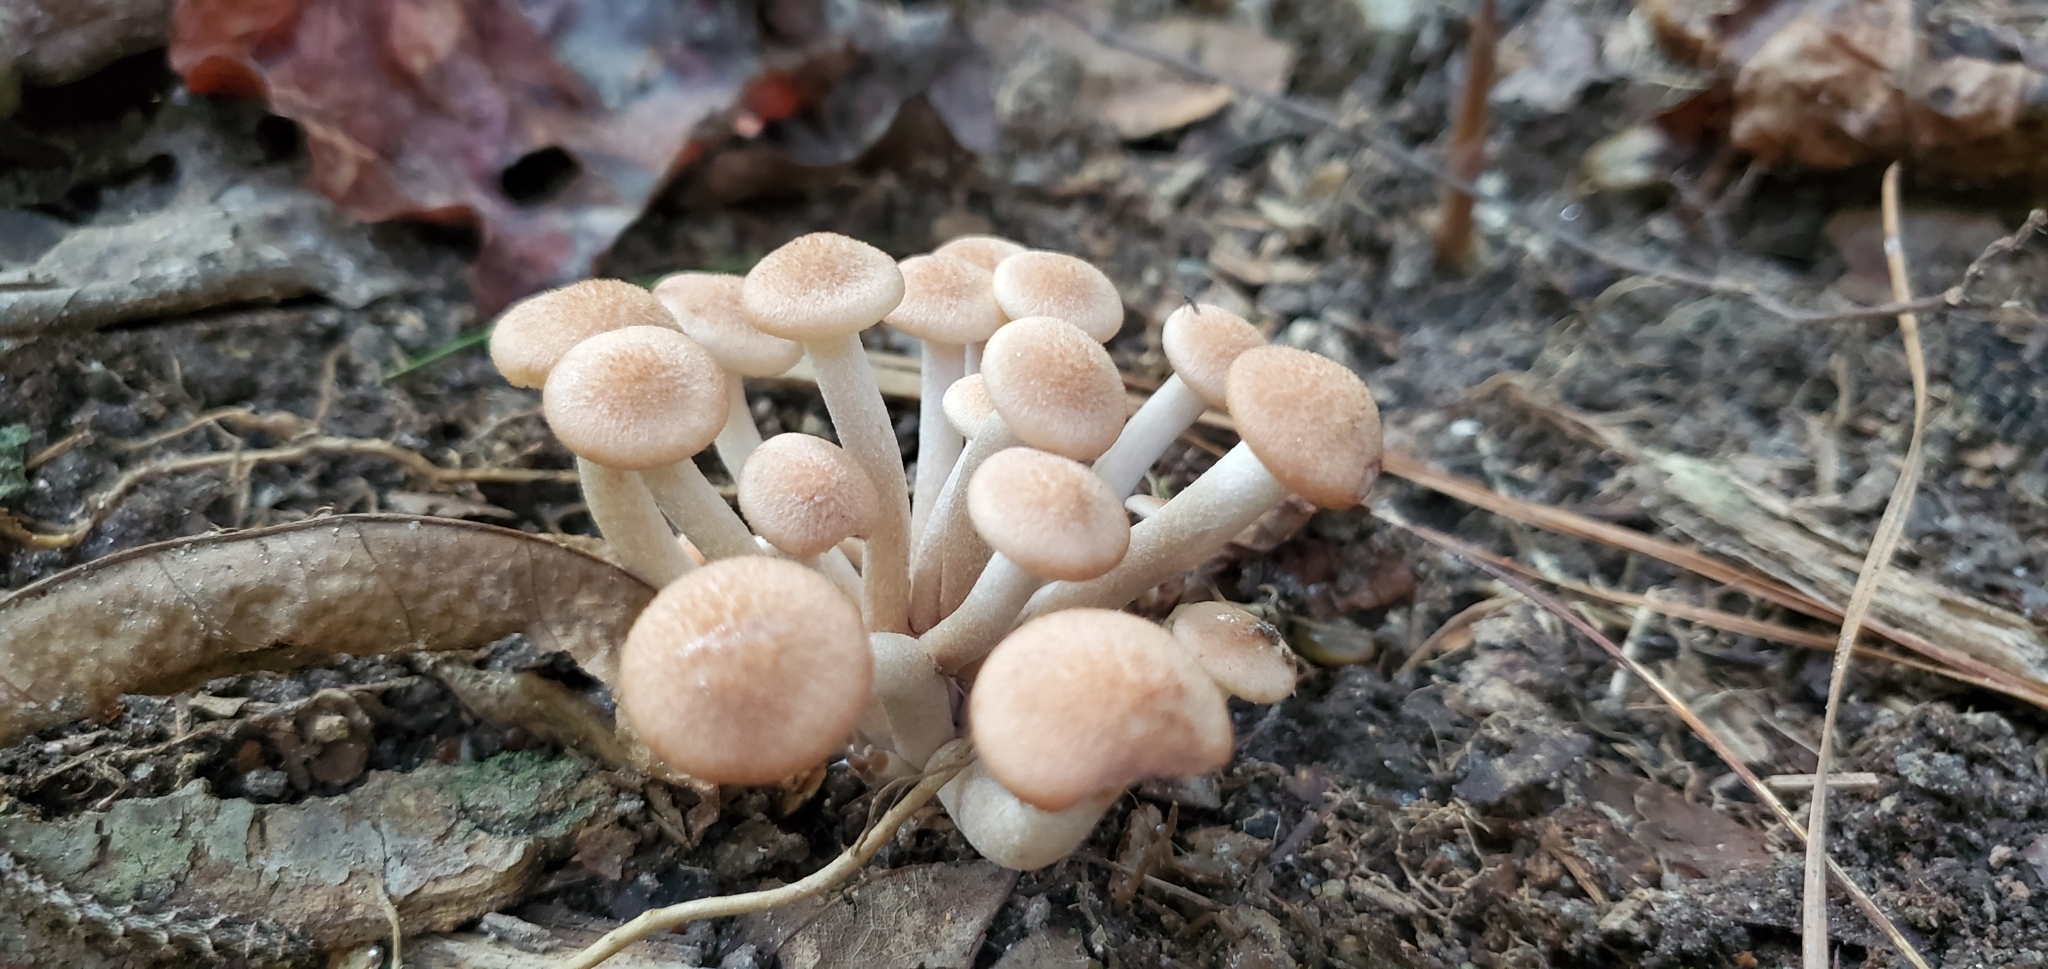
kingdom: Fungi
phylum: Basidiomycota
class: Agaricomycetes
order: Agaricales
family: Physalacriaceae
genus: Desarmillaria
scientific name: Desarmillaria caespitosa
